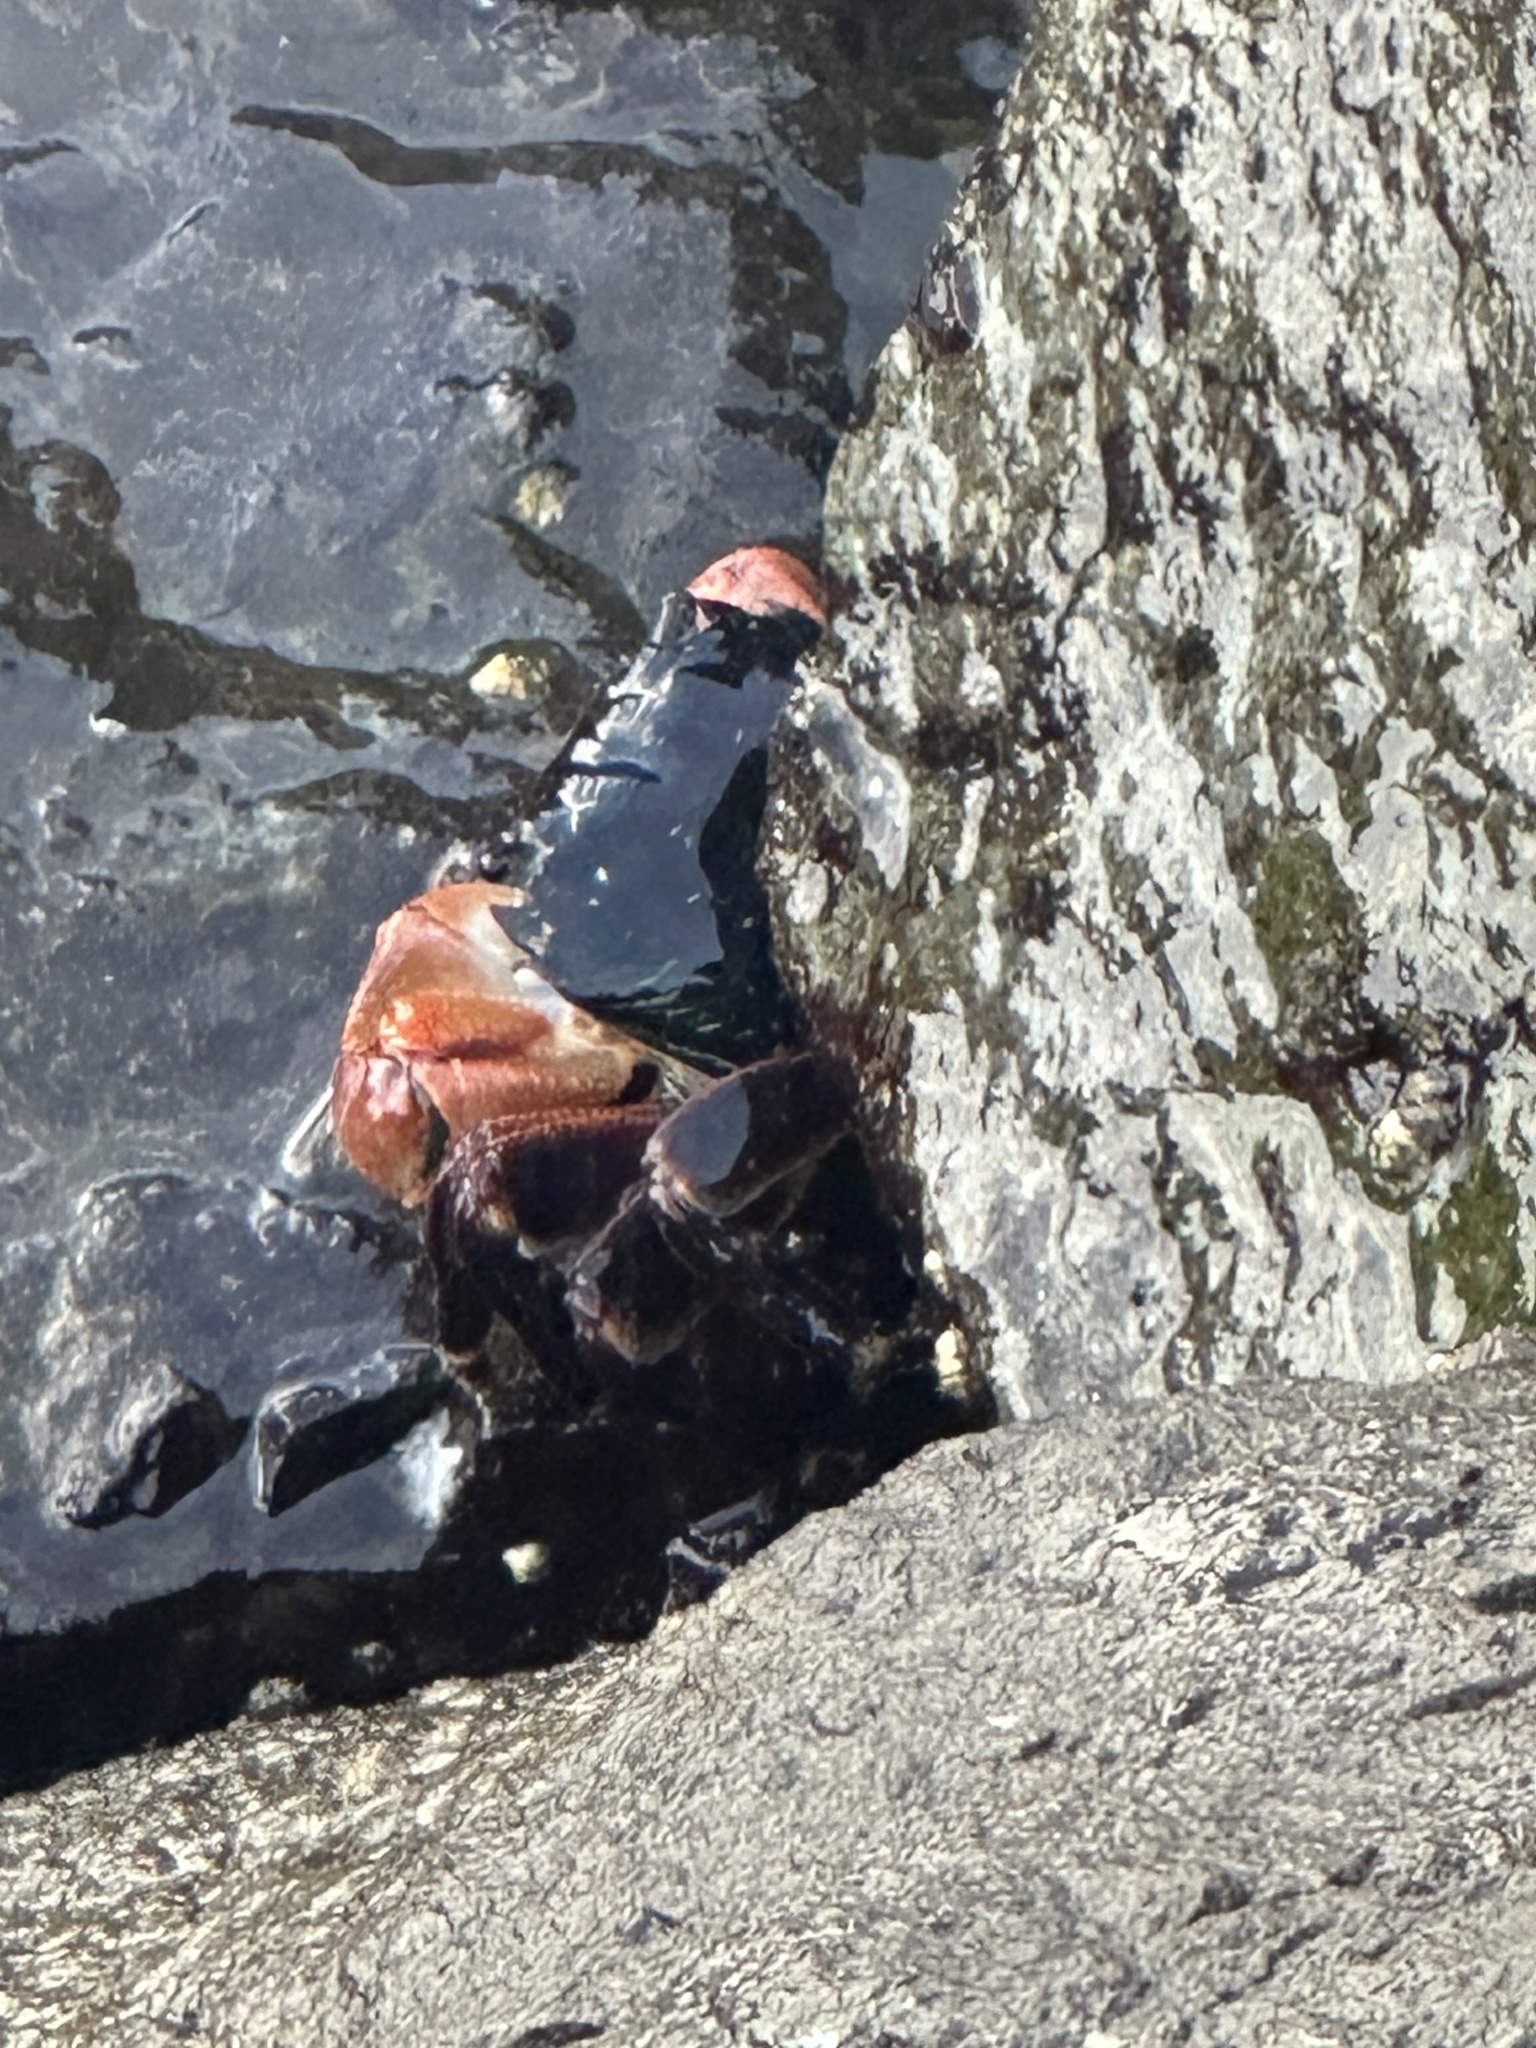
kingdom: Animalia
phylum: Arthropoda
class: Malacostraca
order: Decapoda
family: Grapsidae
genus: Pachygrapsus
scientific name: Pachygrapsus crassipes
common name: Striped shore crab
